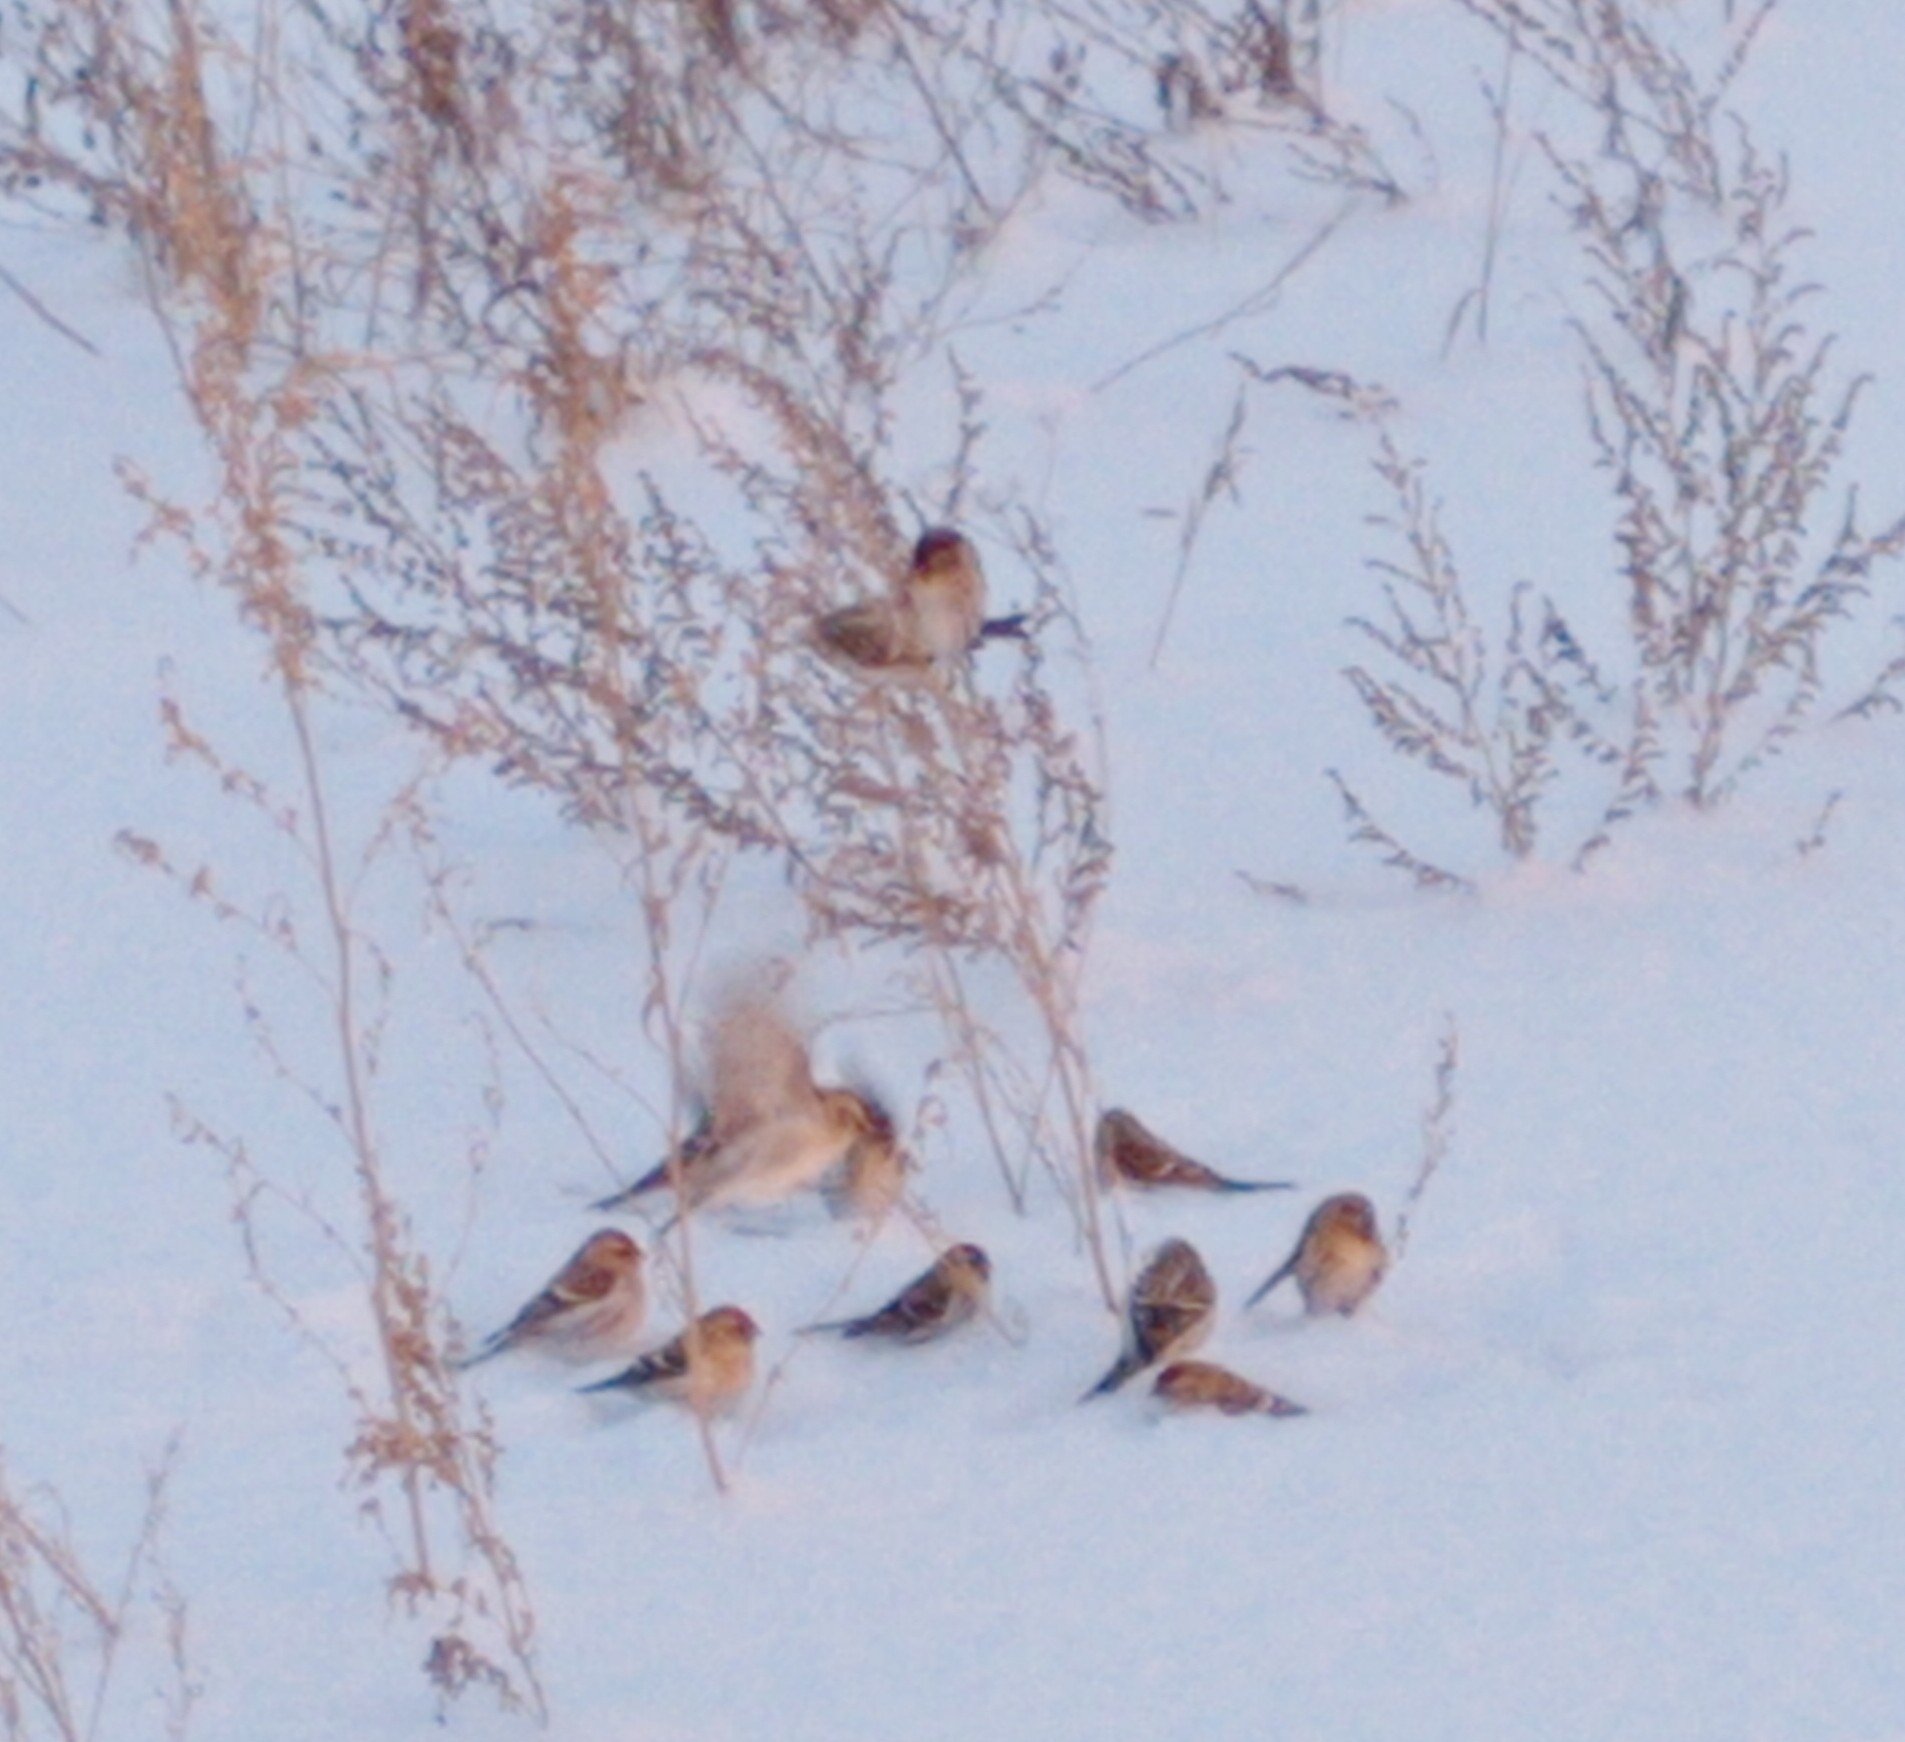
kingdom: Animalia
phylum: Chordata
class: Aves
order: Passeriformes
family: Fringillidae
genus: Acanthis
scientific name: Acanthis flammea
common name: Common redpoll
